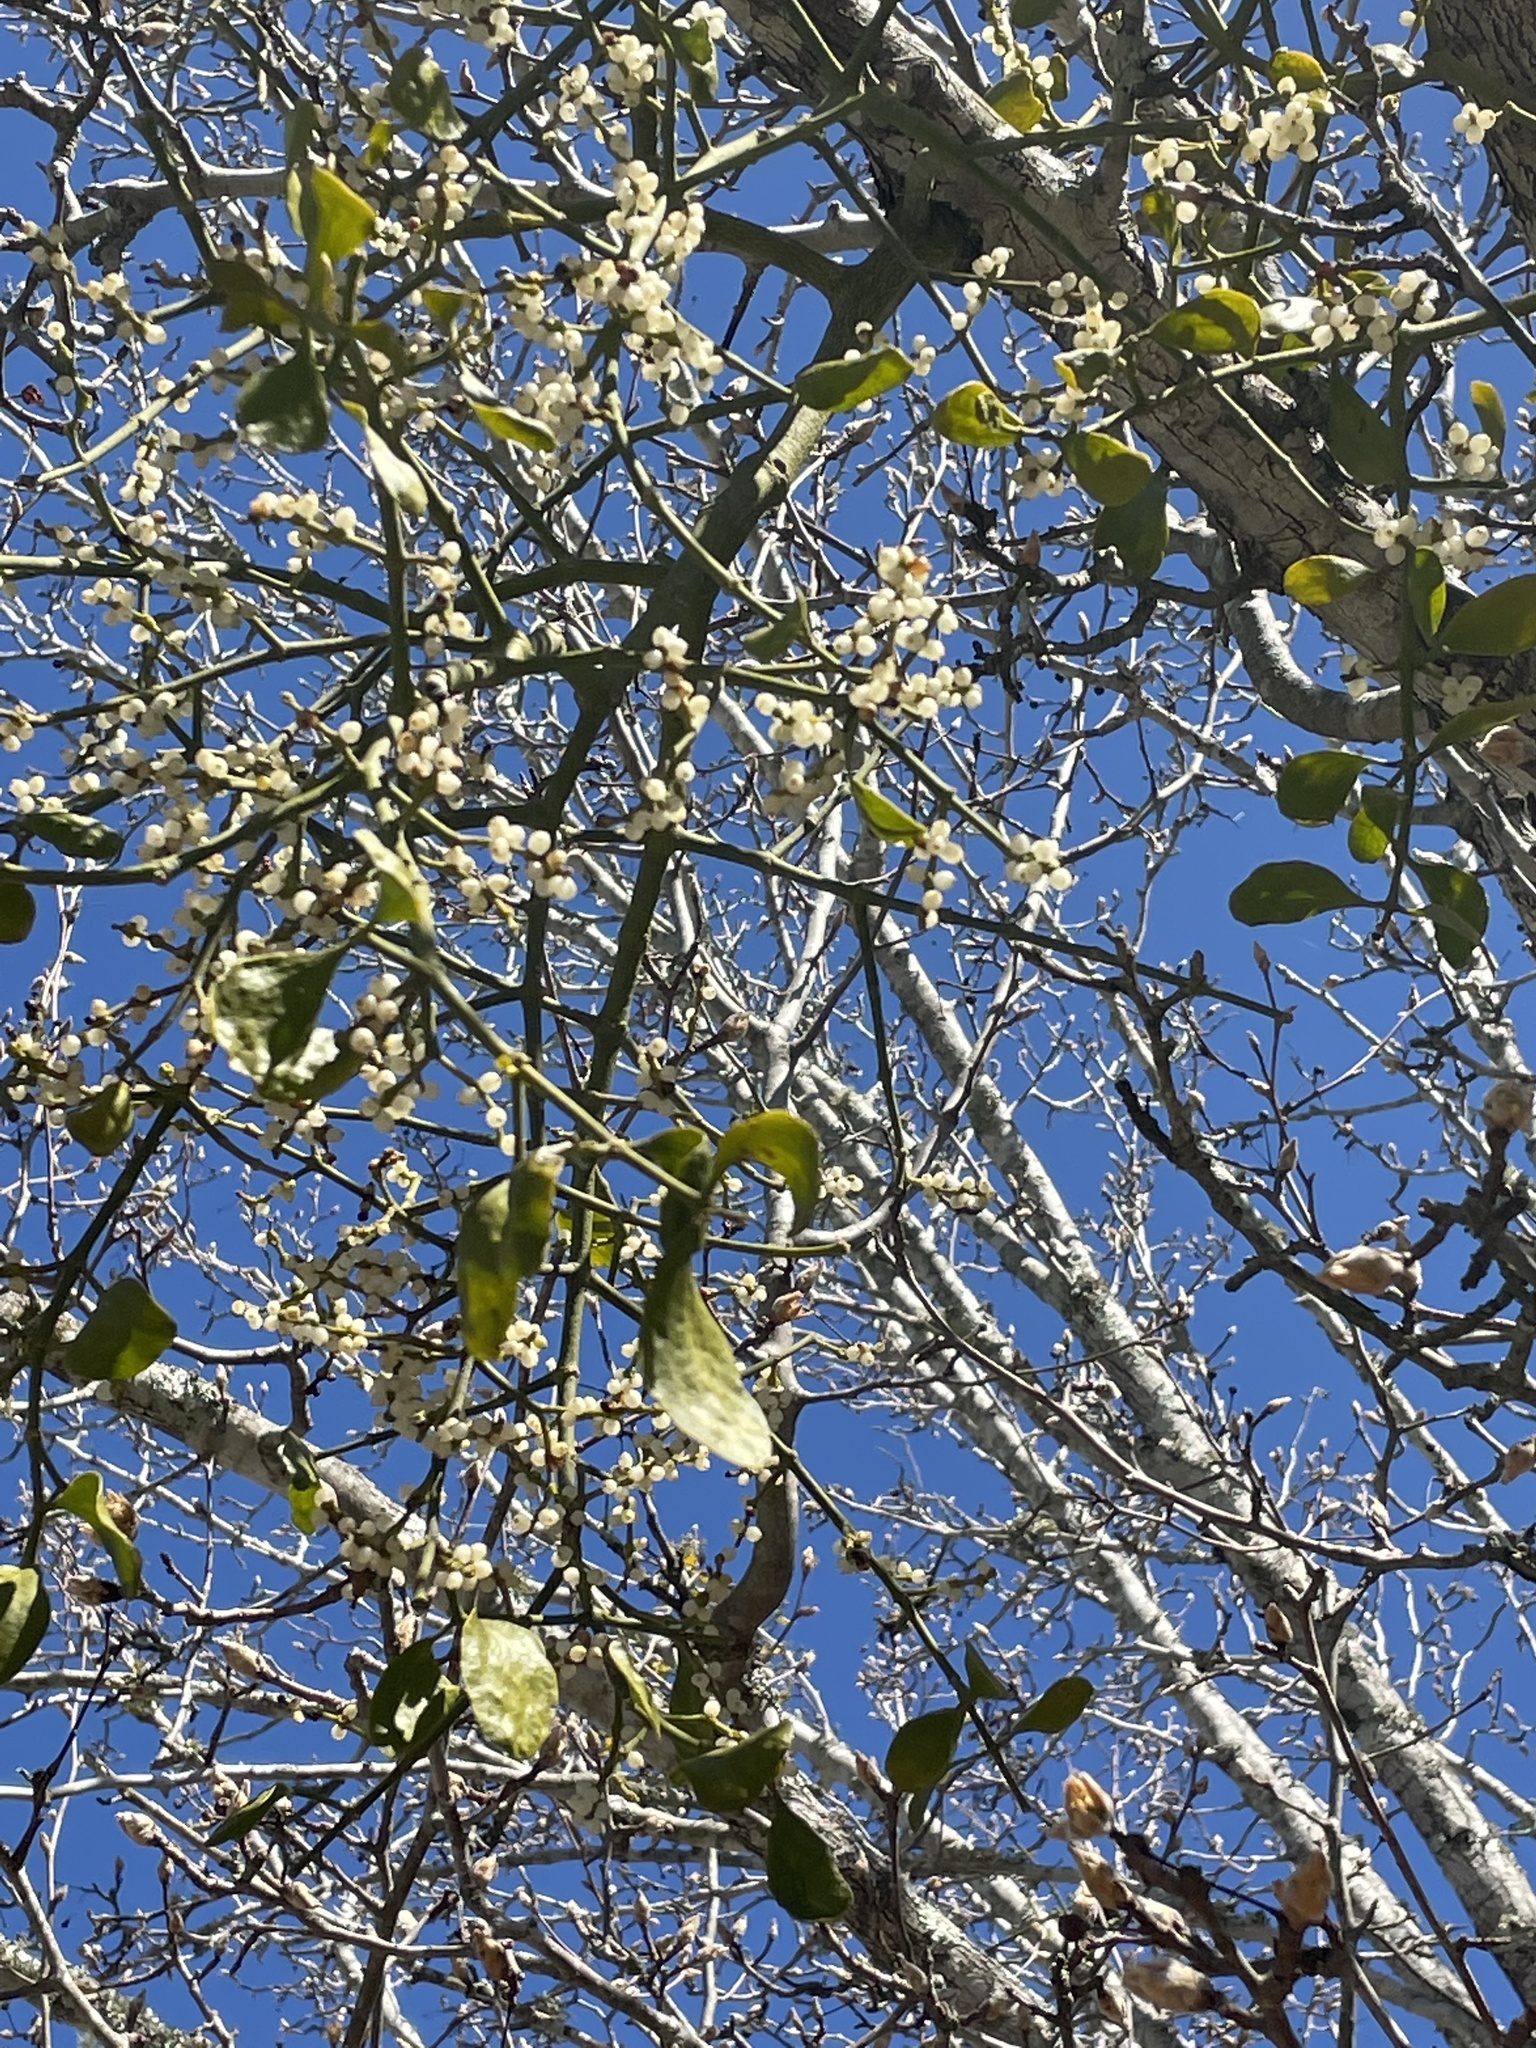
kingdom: Plantae
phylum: Tracheophyta
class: Magnoliopsida
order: Santalales
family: Viscaceae
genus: Phoradendron
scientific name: Phoradendron leucarpum
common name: Pacific mistletoe
